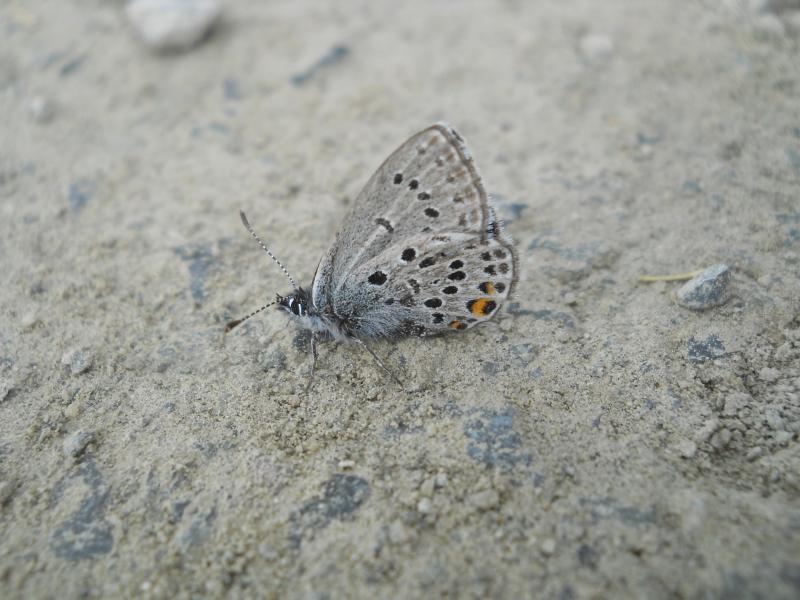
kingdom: Animalia
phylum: Arthropoda
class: Insecta
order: Lepidoptera
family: Lycaenidae
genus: Vacciniina
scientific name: Vacciniina optilete
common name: Cranberry blue
